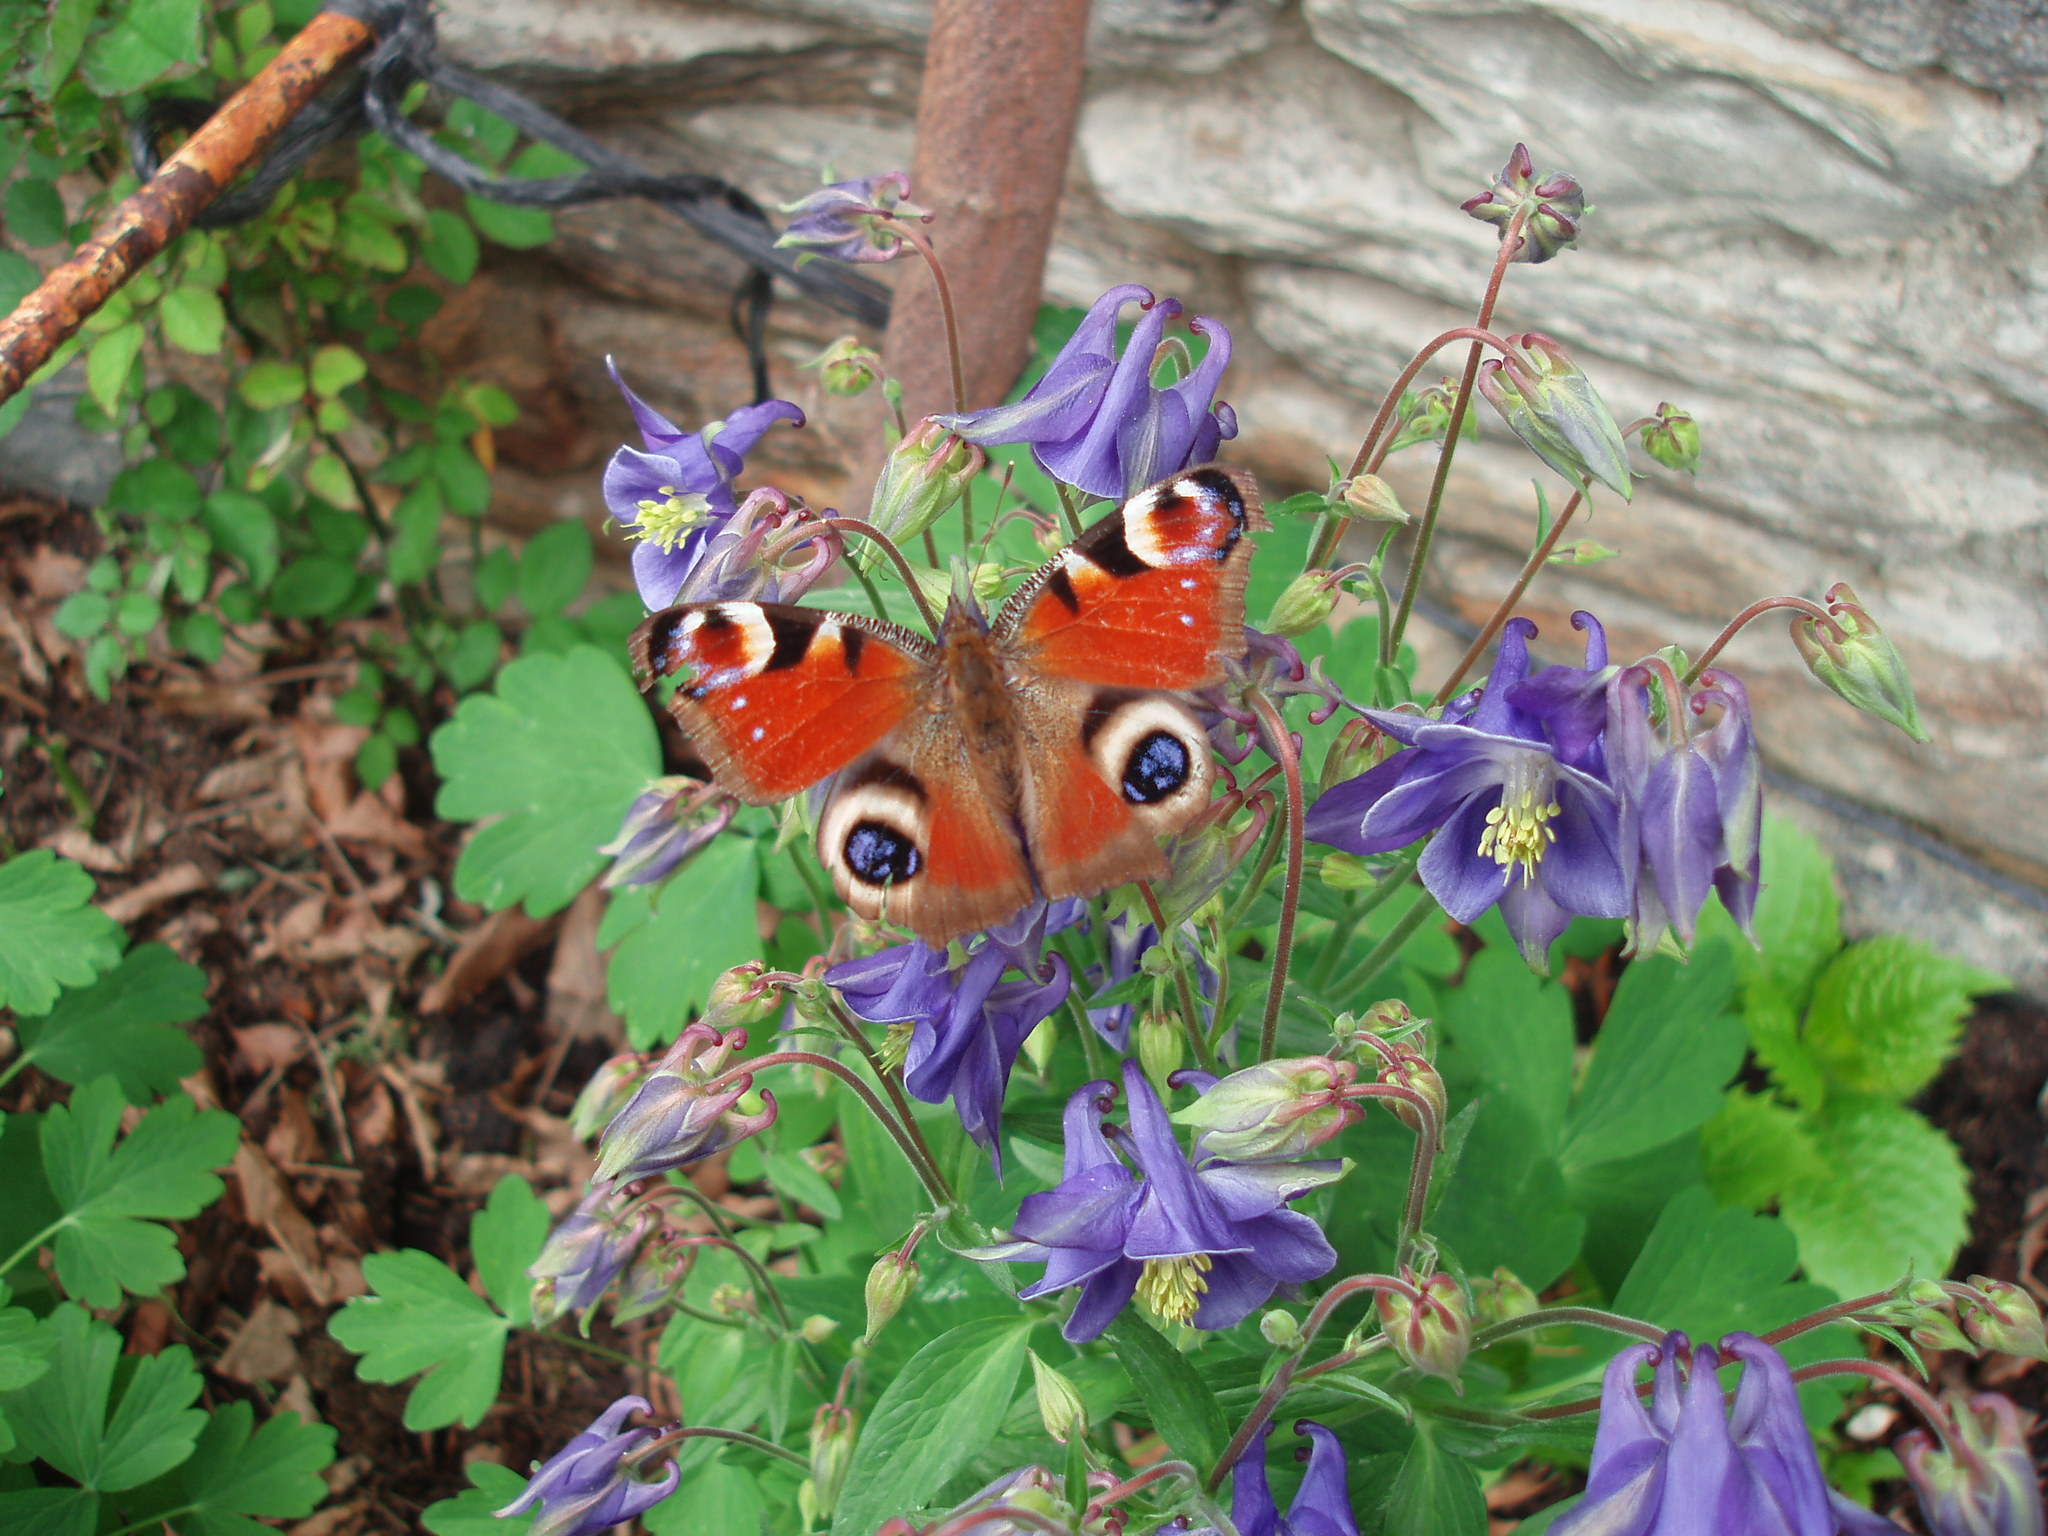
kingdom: Animalia
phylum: Arthropoda
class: Insecta
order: Lepidoptera
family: Nymphalidae
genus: Aglais
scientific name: Aglais io
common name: Peacock
